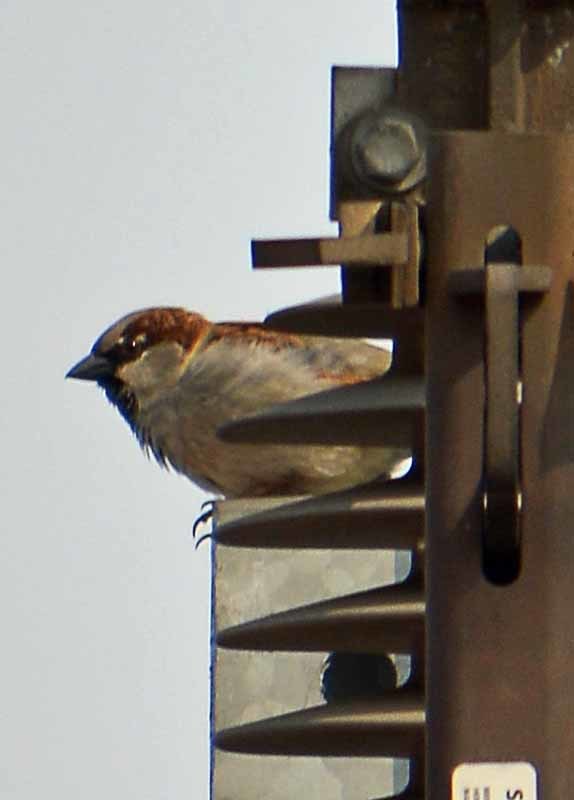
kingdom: Animalia
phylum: Chordata
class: Aves
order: Passeriformes
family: Passeridae
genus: Passer
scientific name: Passer domesticus
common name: House sparrow
